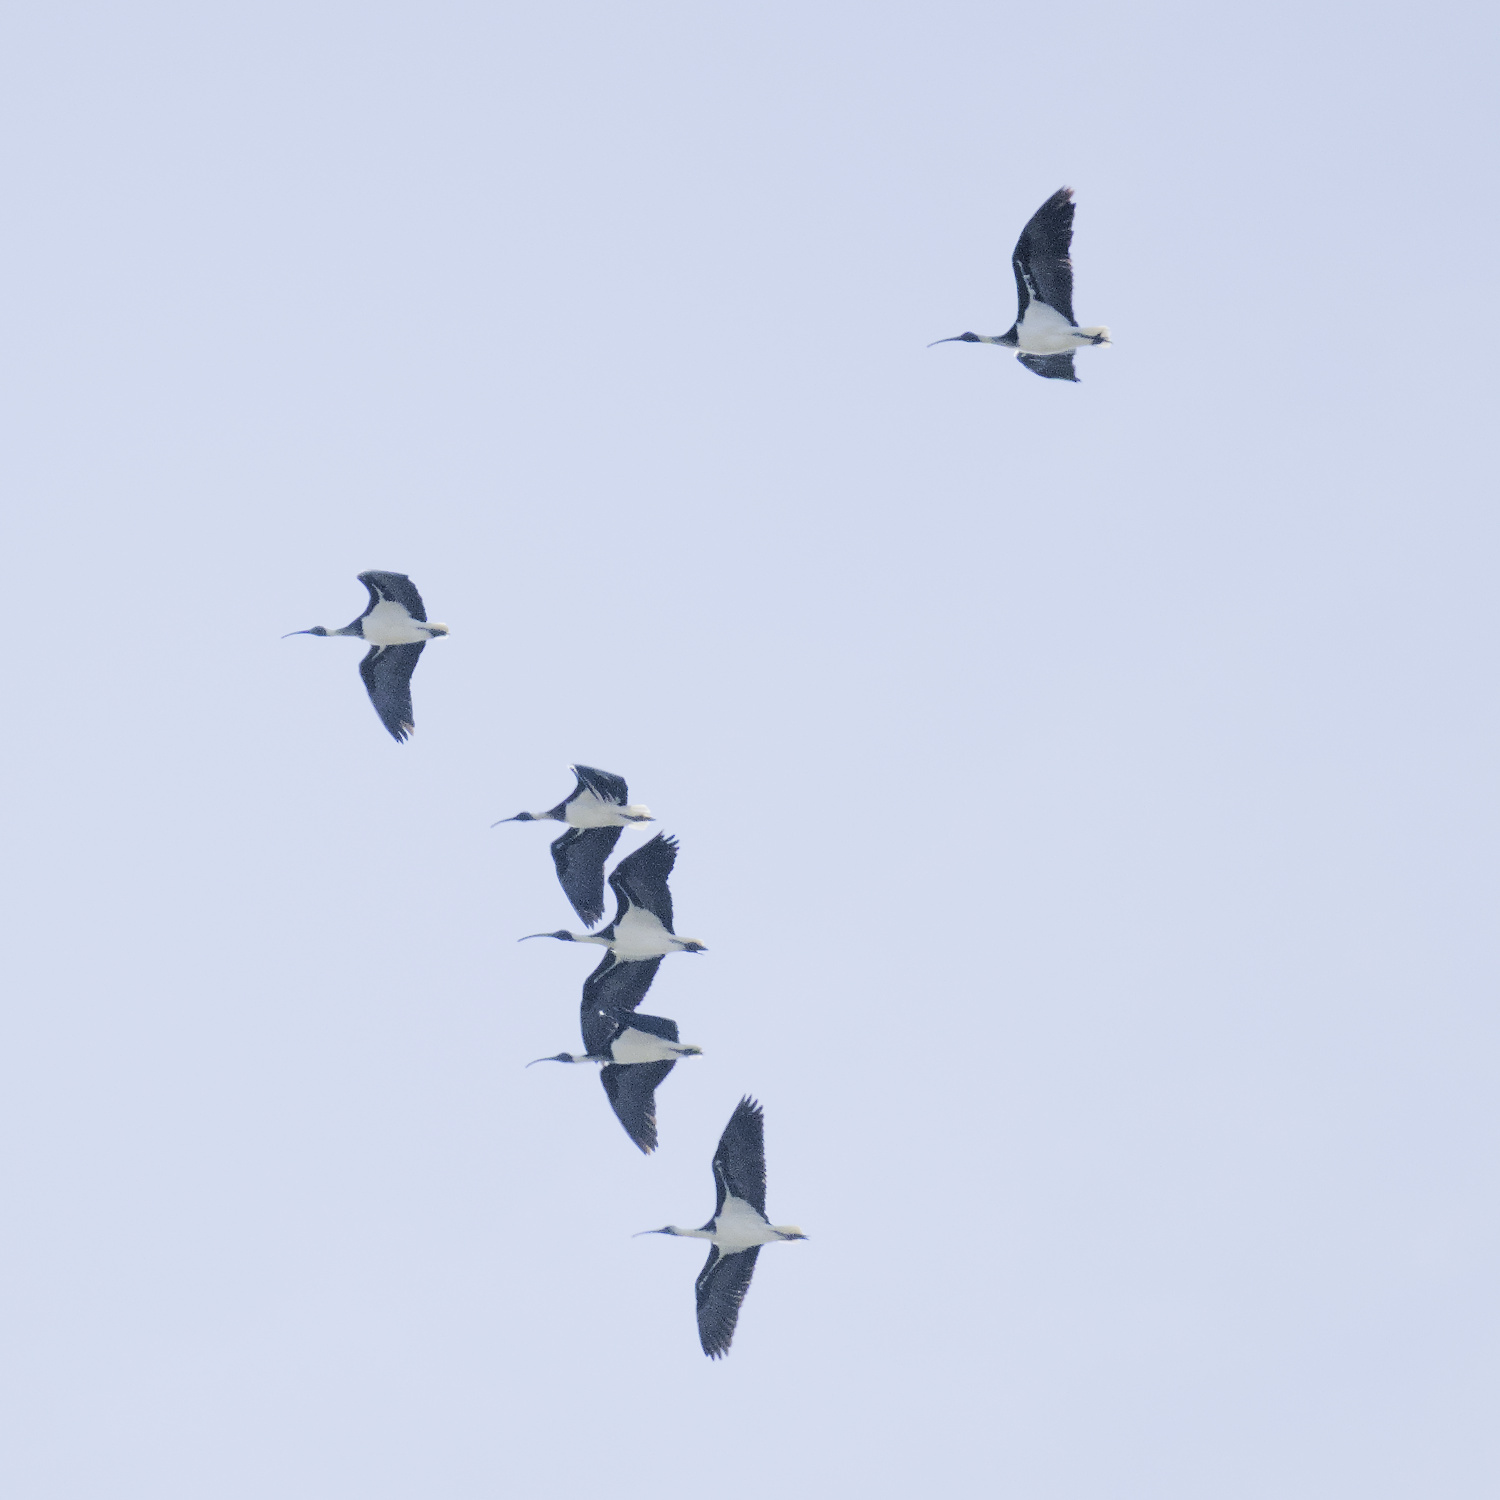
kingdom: Animalia
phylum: Chordata
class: Aves
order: Pelecaniformes
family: Threskiornithidae
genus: Threskiornis
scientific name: Threskiornis spinicollis
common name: Straw-necked ibis
